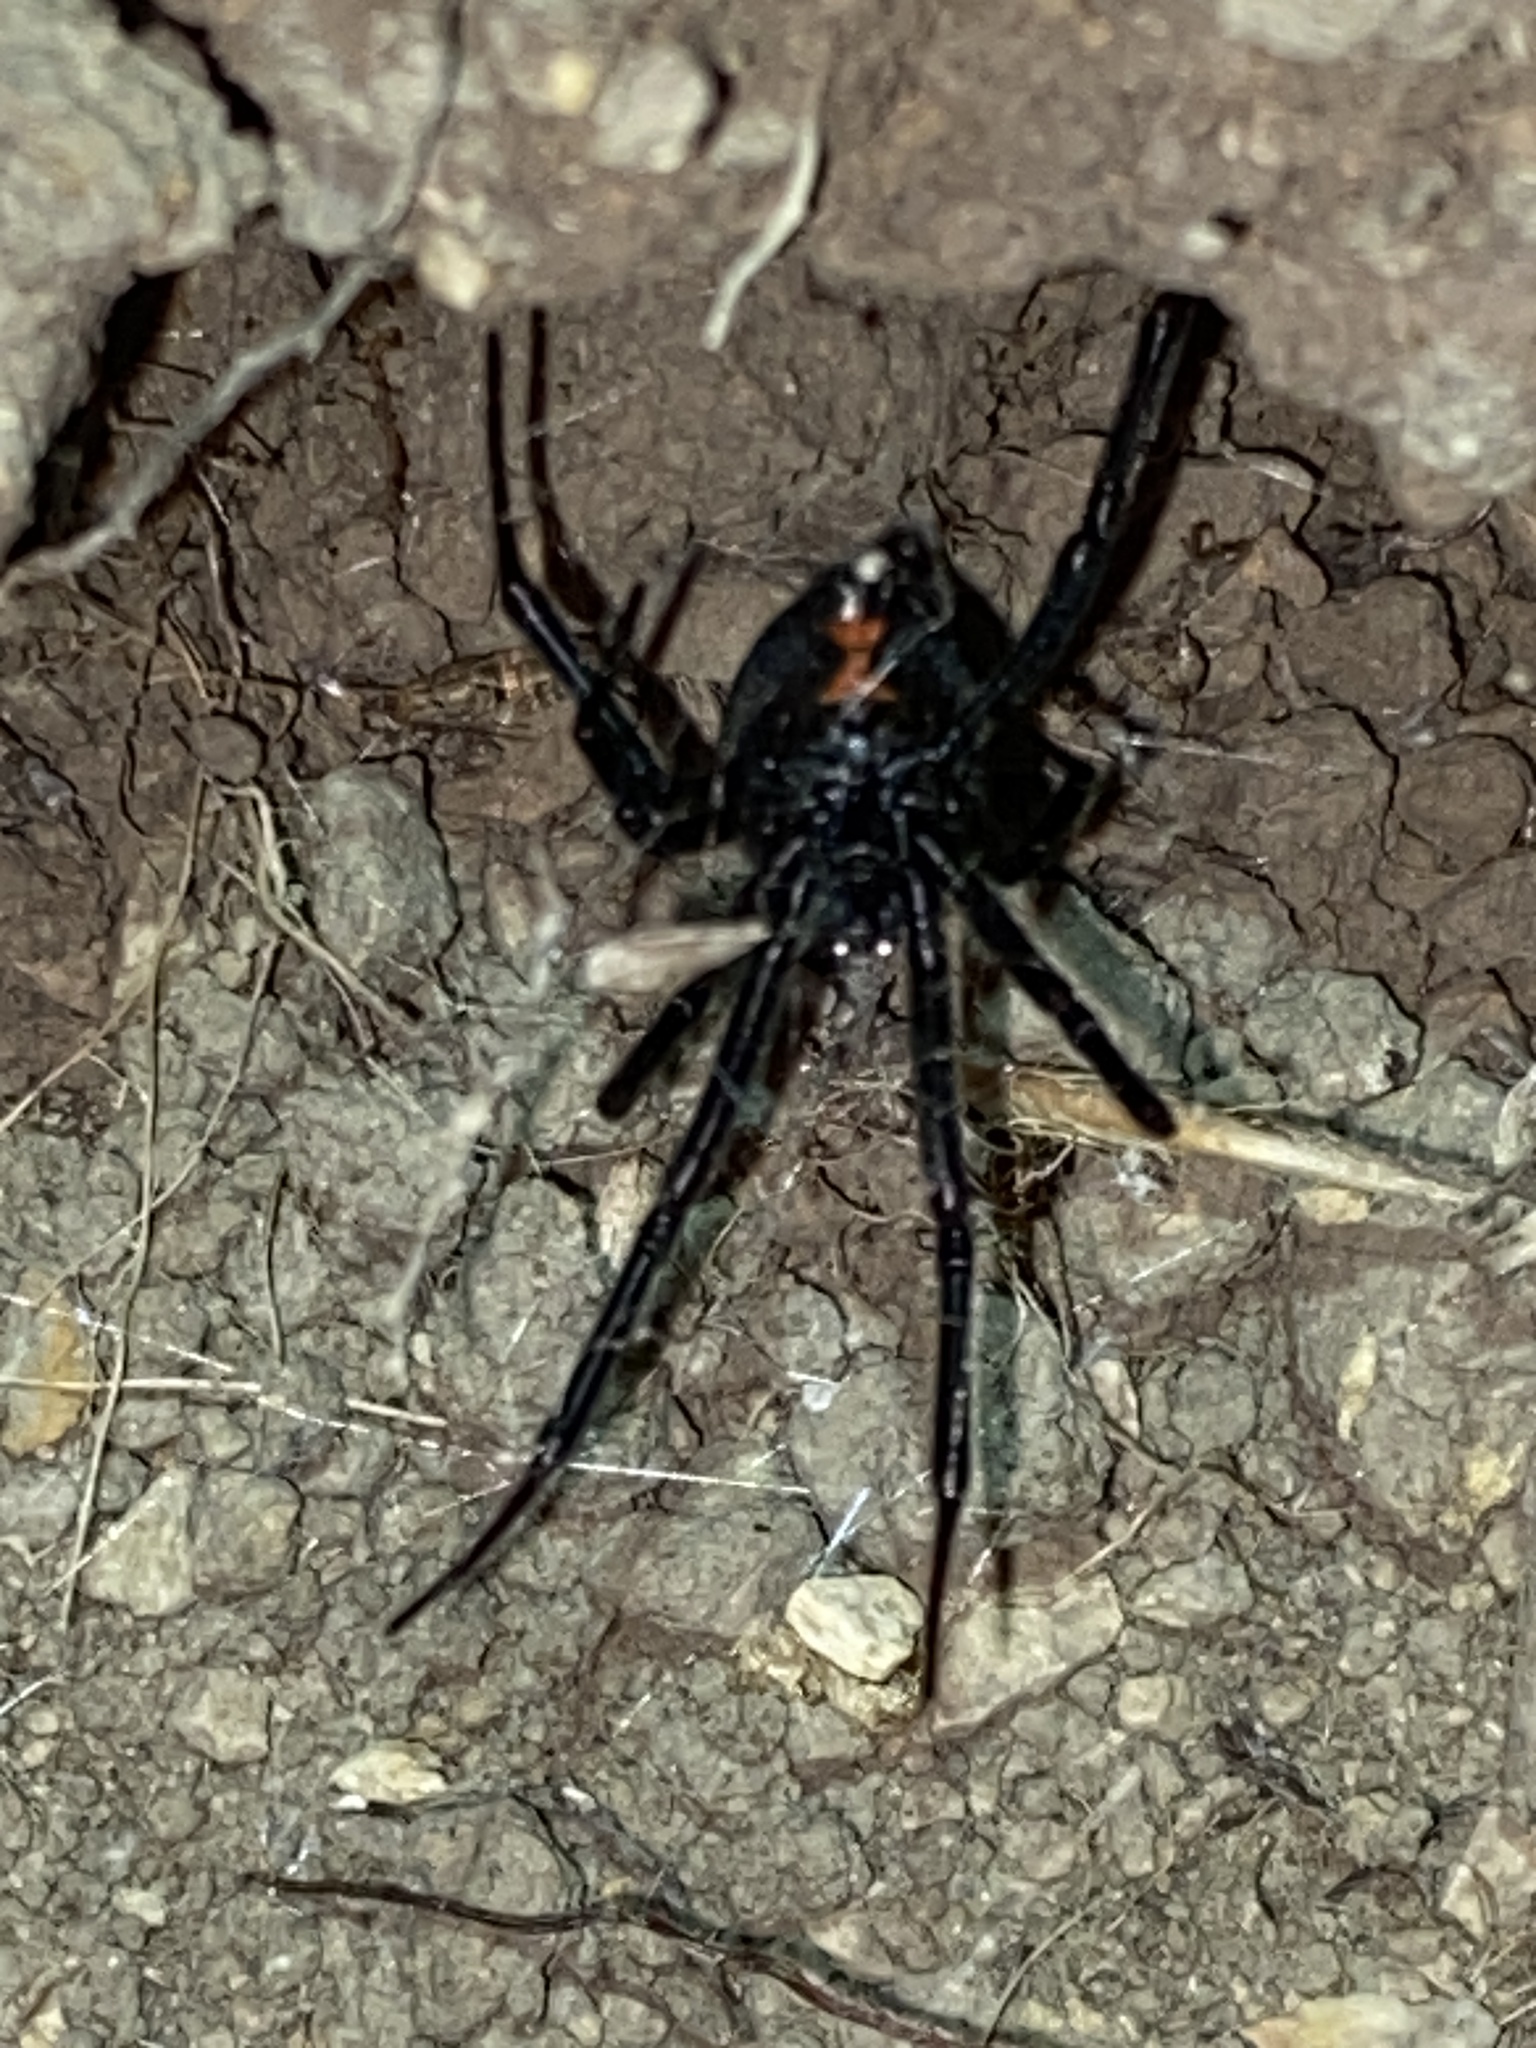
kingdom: Animalia
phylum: Arthropoda
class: Arachnida
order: Araneae
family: Theridiidae
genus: Latrodectus
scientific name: Latrodectus hesperus
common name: Western black widow
